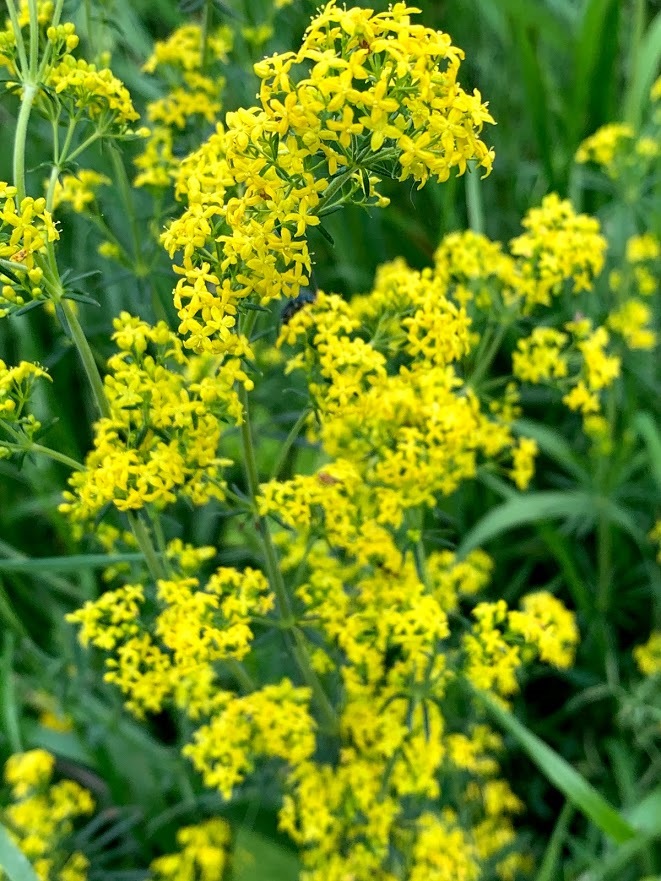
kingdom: Plantae
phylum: Tracheophyta
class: Magnoliopsida
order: Gentianales
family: Rubiaceae
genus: Galium
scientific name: Galium verum
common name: Lady's bedstraw
